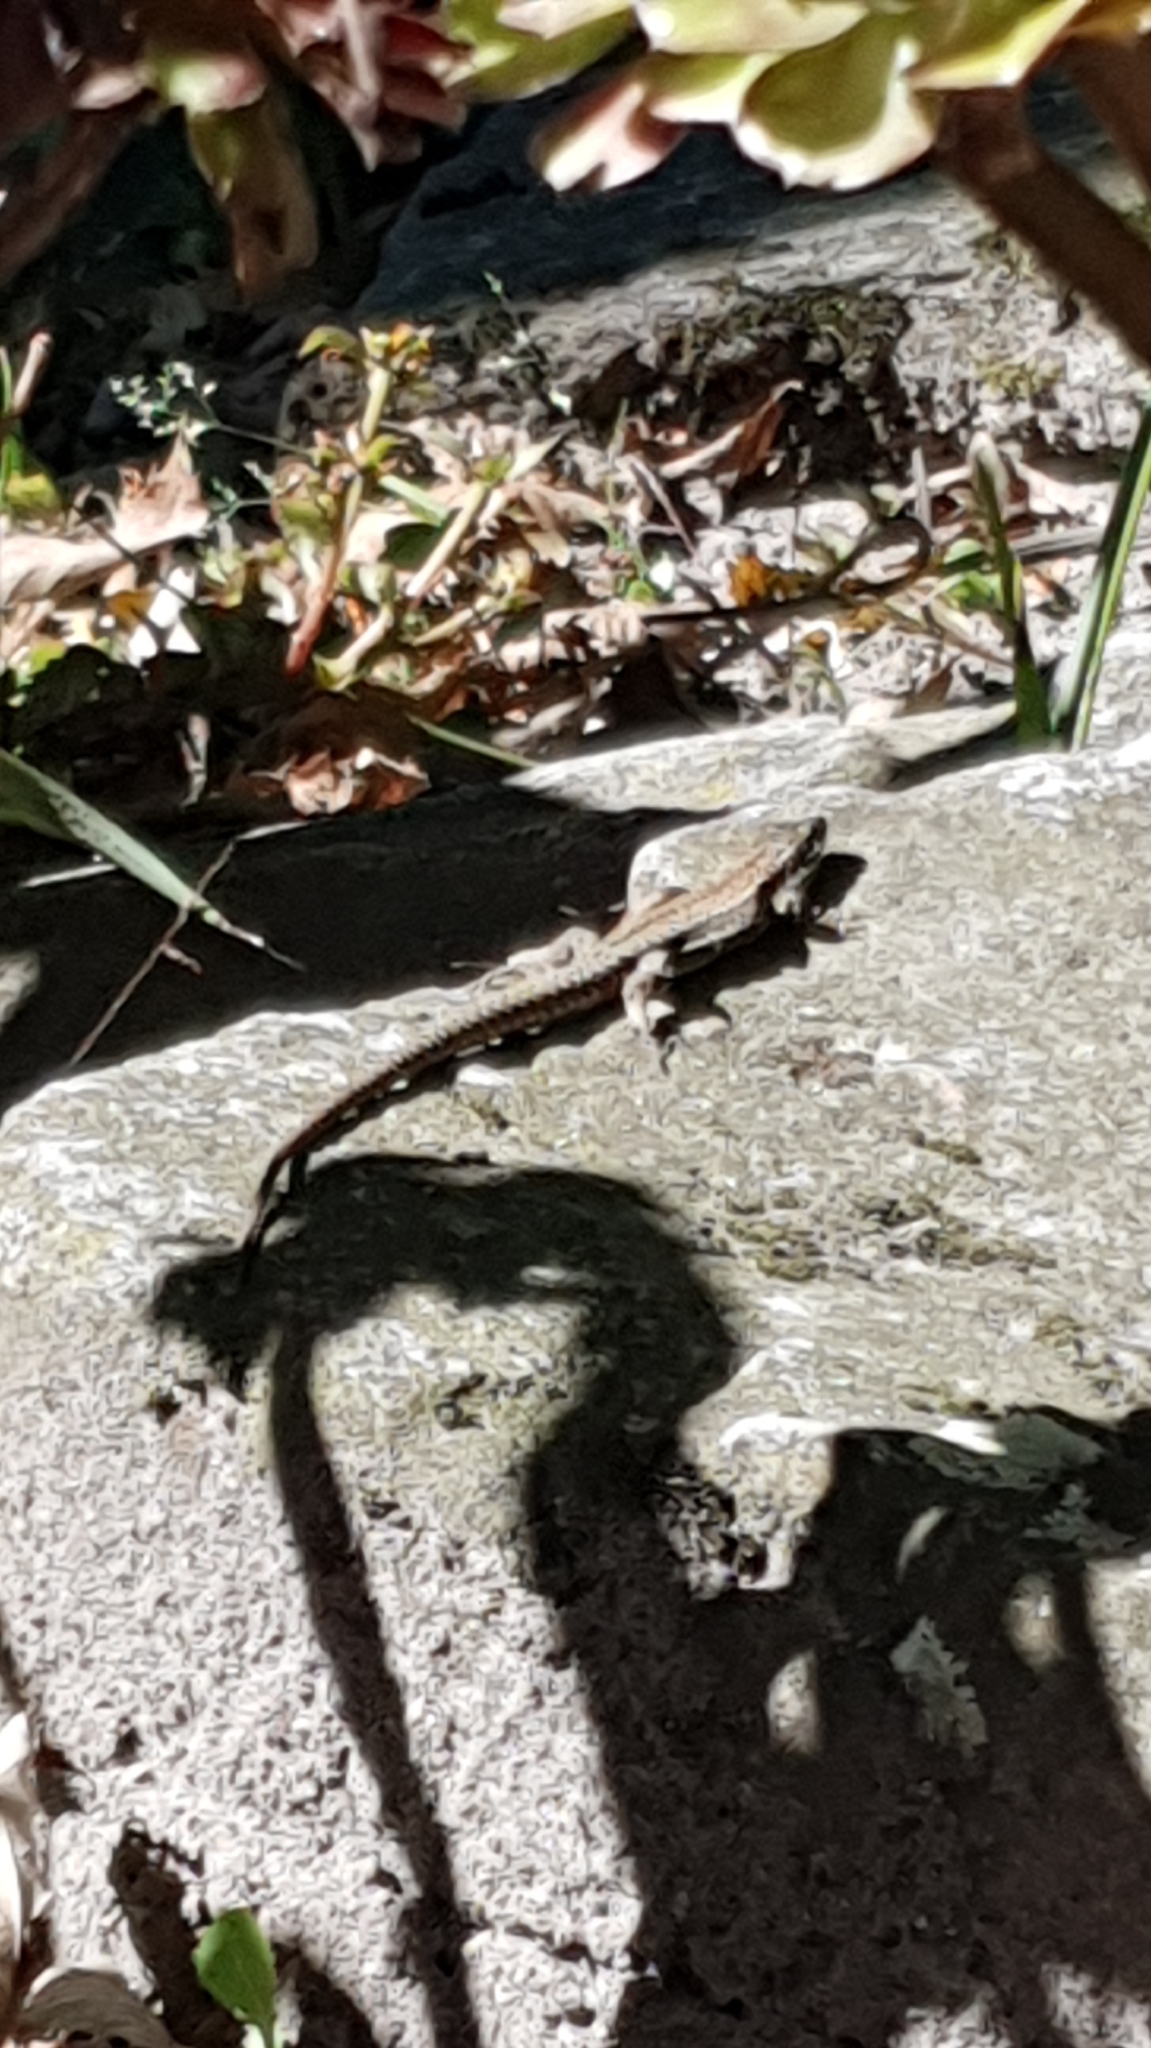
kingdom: Animalia
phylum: Chordata
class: Squamata
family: Lacertidae
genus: Podarcis
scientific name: Podarcis muralis
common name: Common wall lizard
